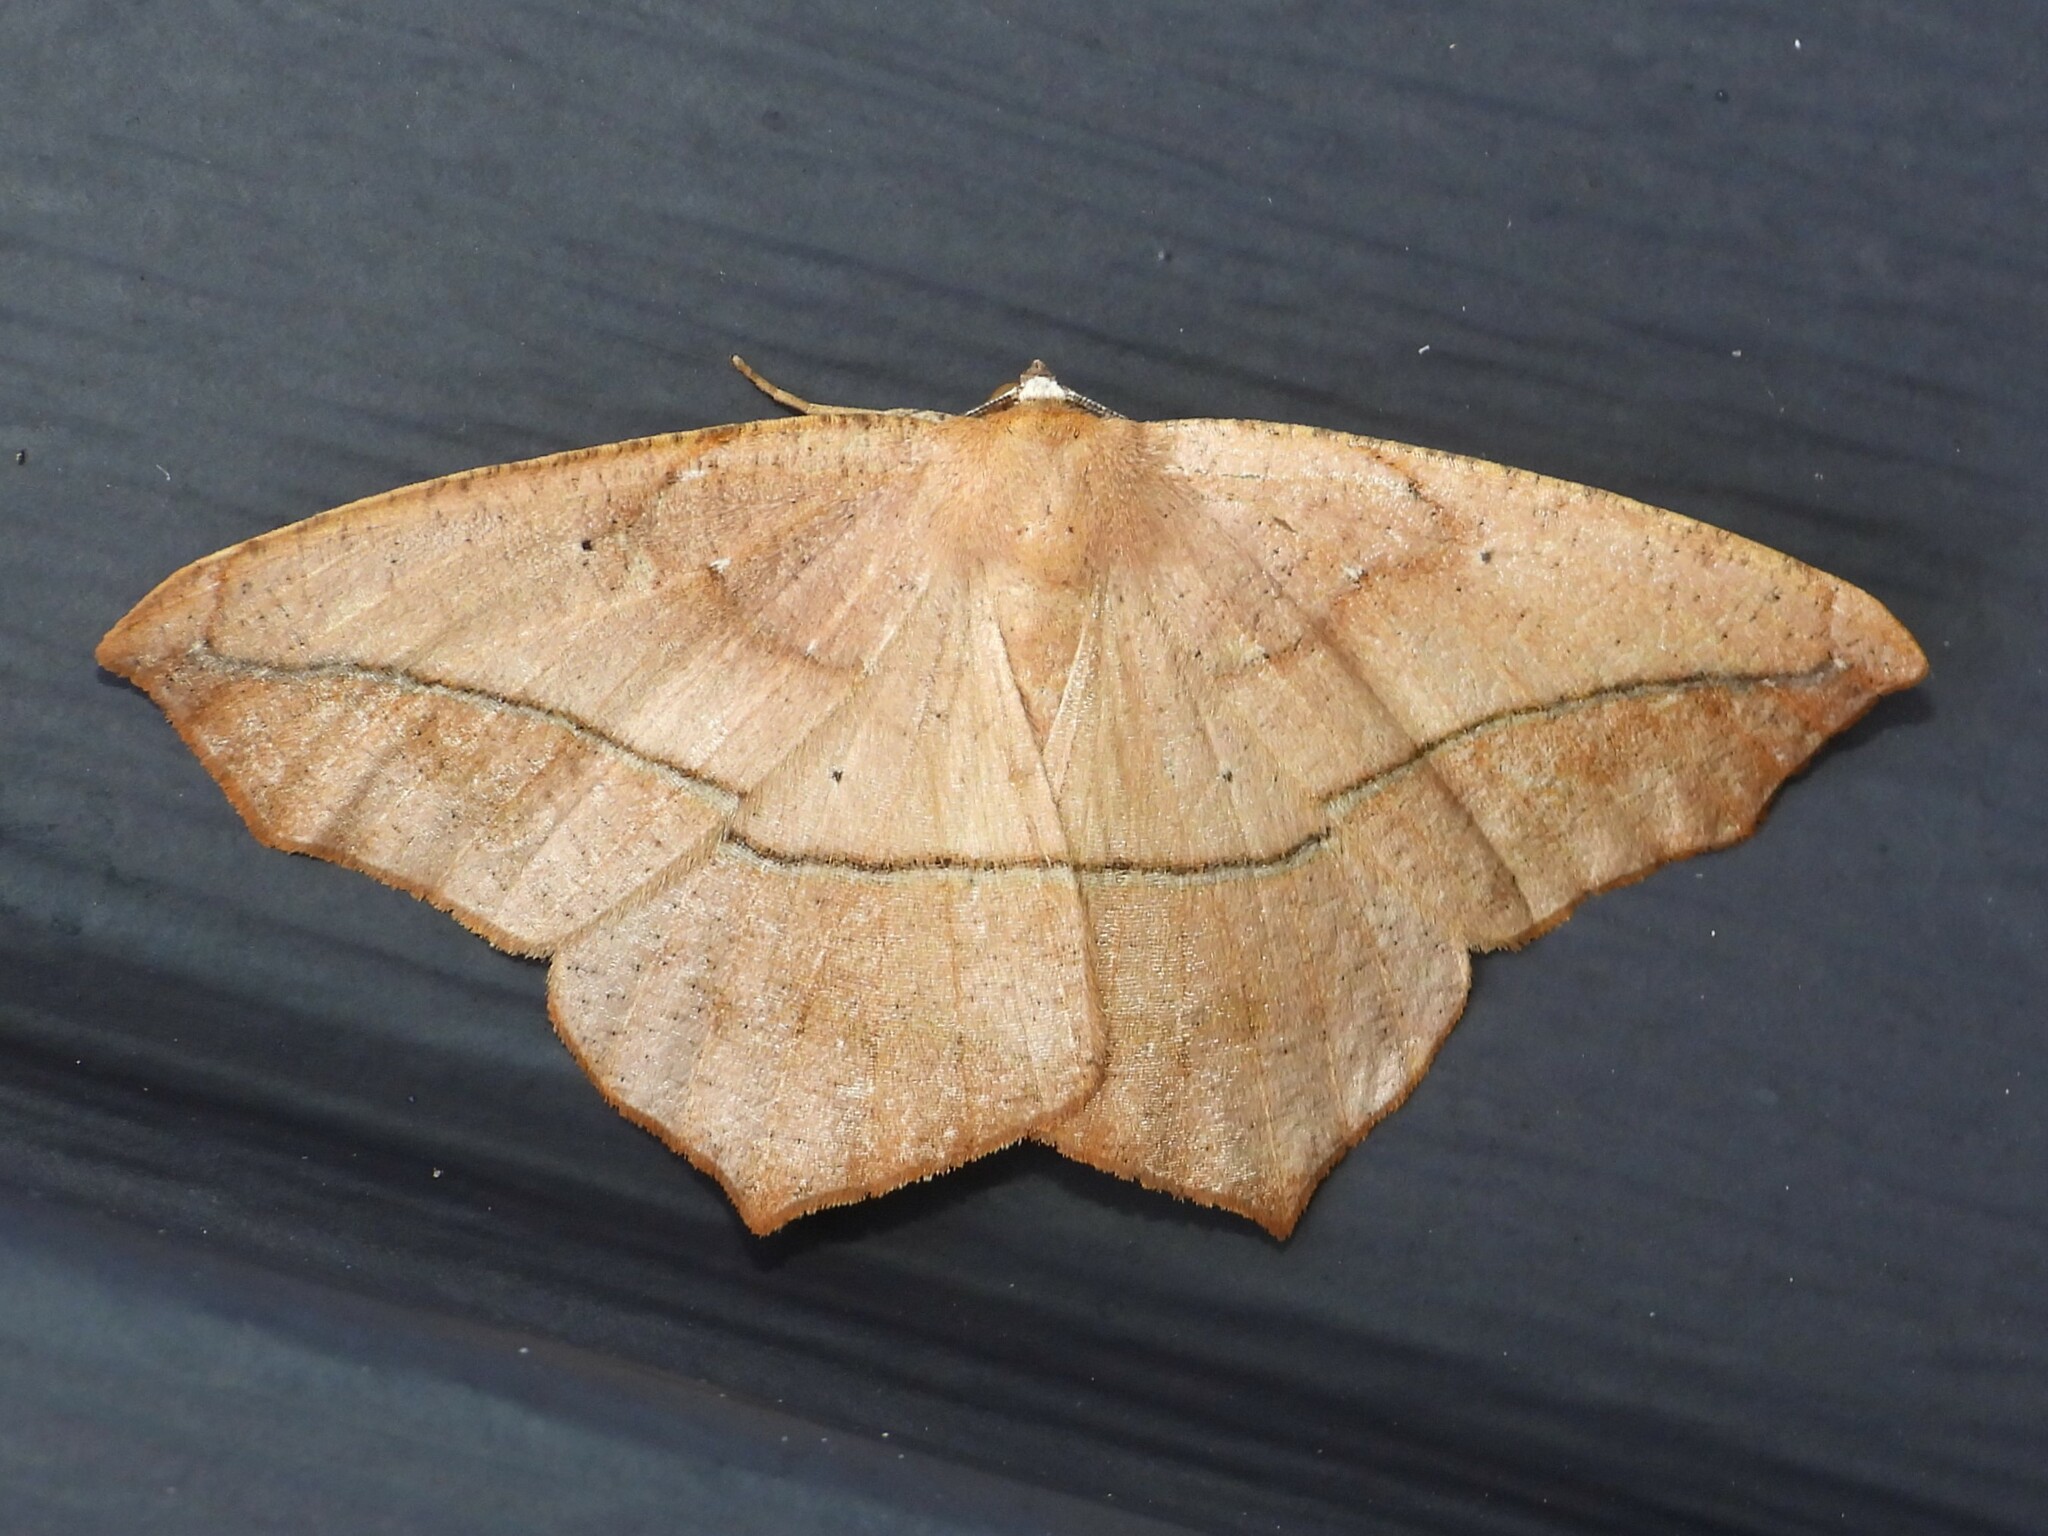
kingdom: Animalia
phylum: Arthropoda
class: Insecta
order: Lepidoptera
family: Geometridae
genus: Prochoerodes
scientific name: Prochoerodes lineola
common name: Large maple spanworm
